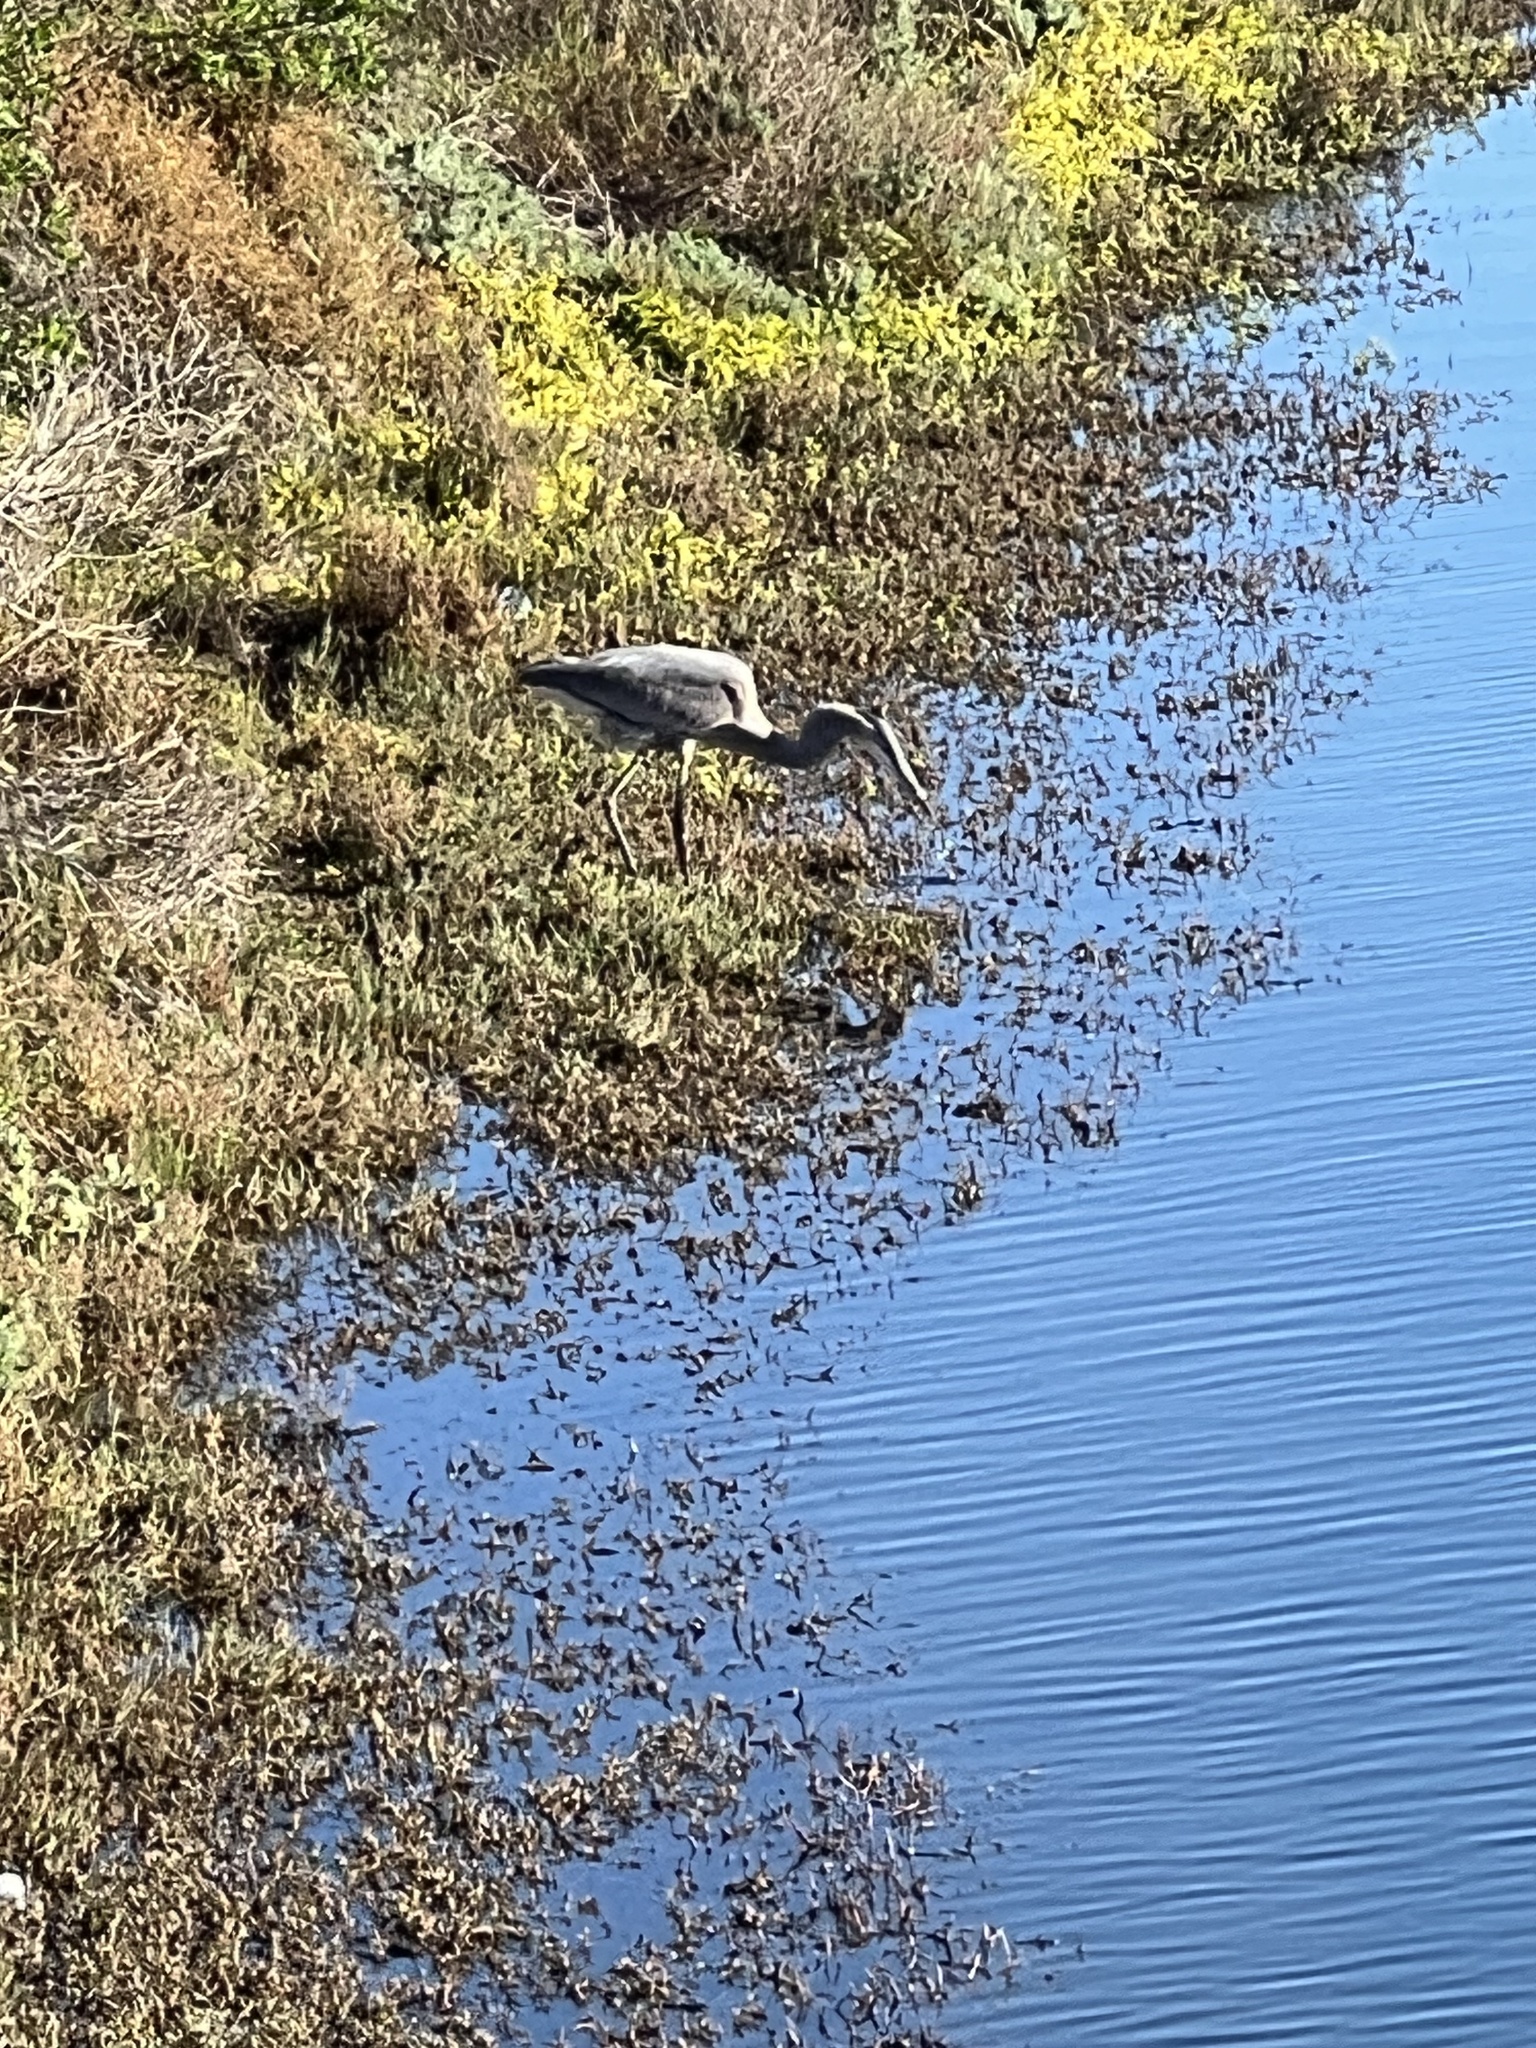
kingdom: Animalia
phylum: Chordata
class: Aves
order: Pelecaniformes
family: Ardeidae
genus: Ardea
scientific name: Ardea herodias
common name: Great blue heron
